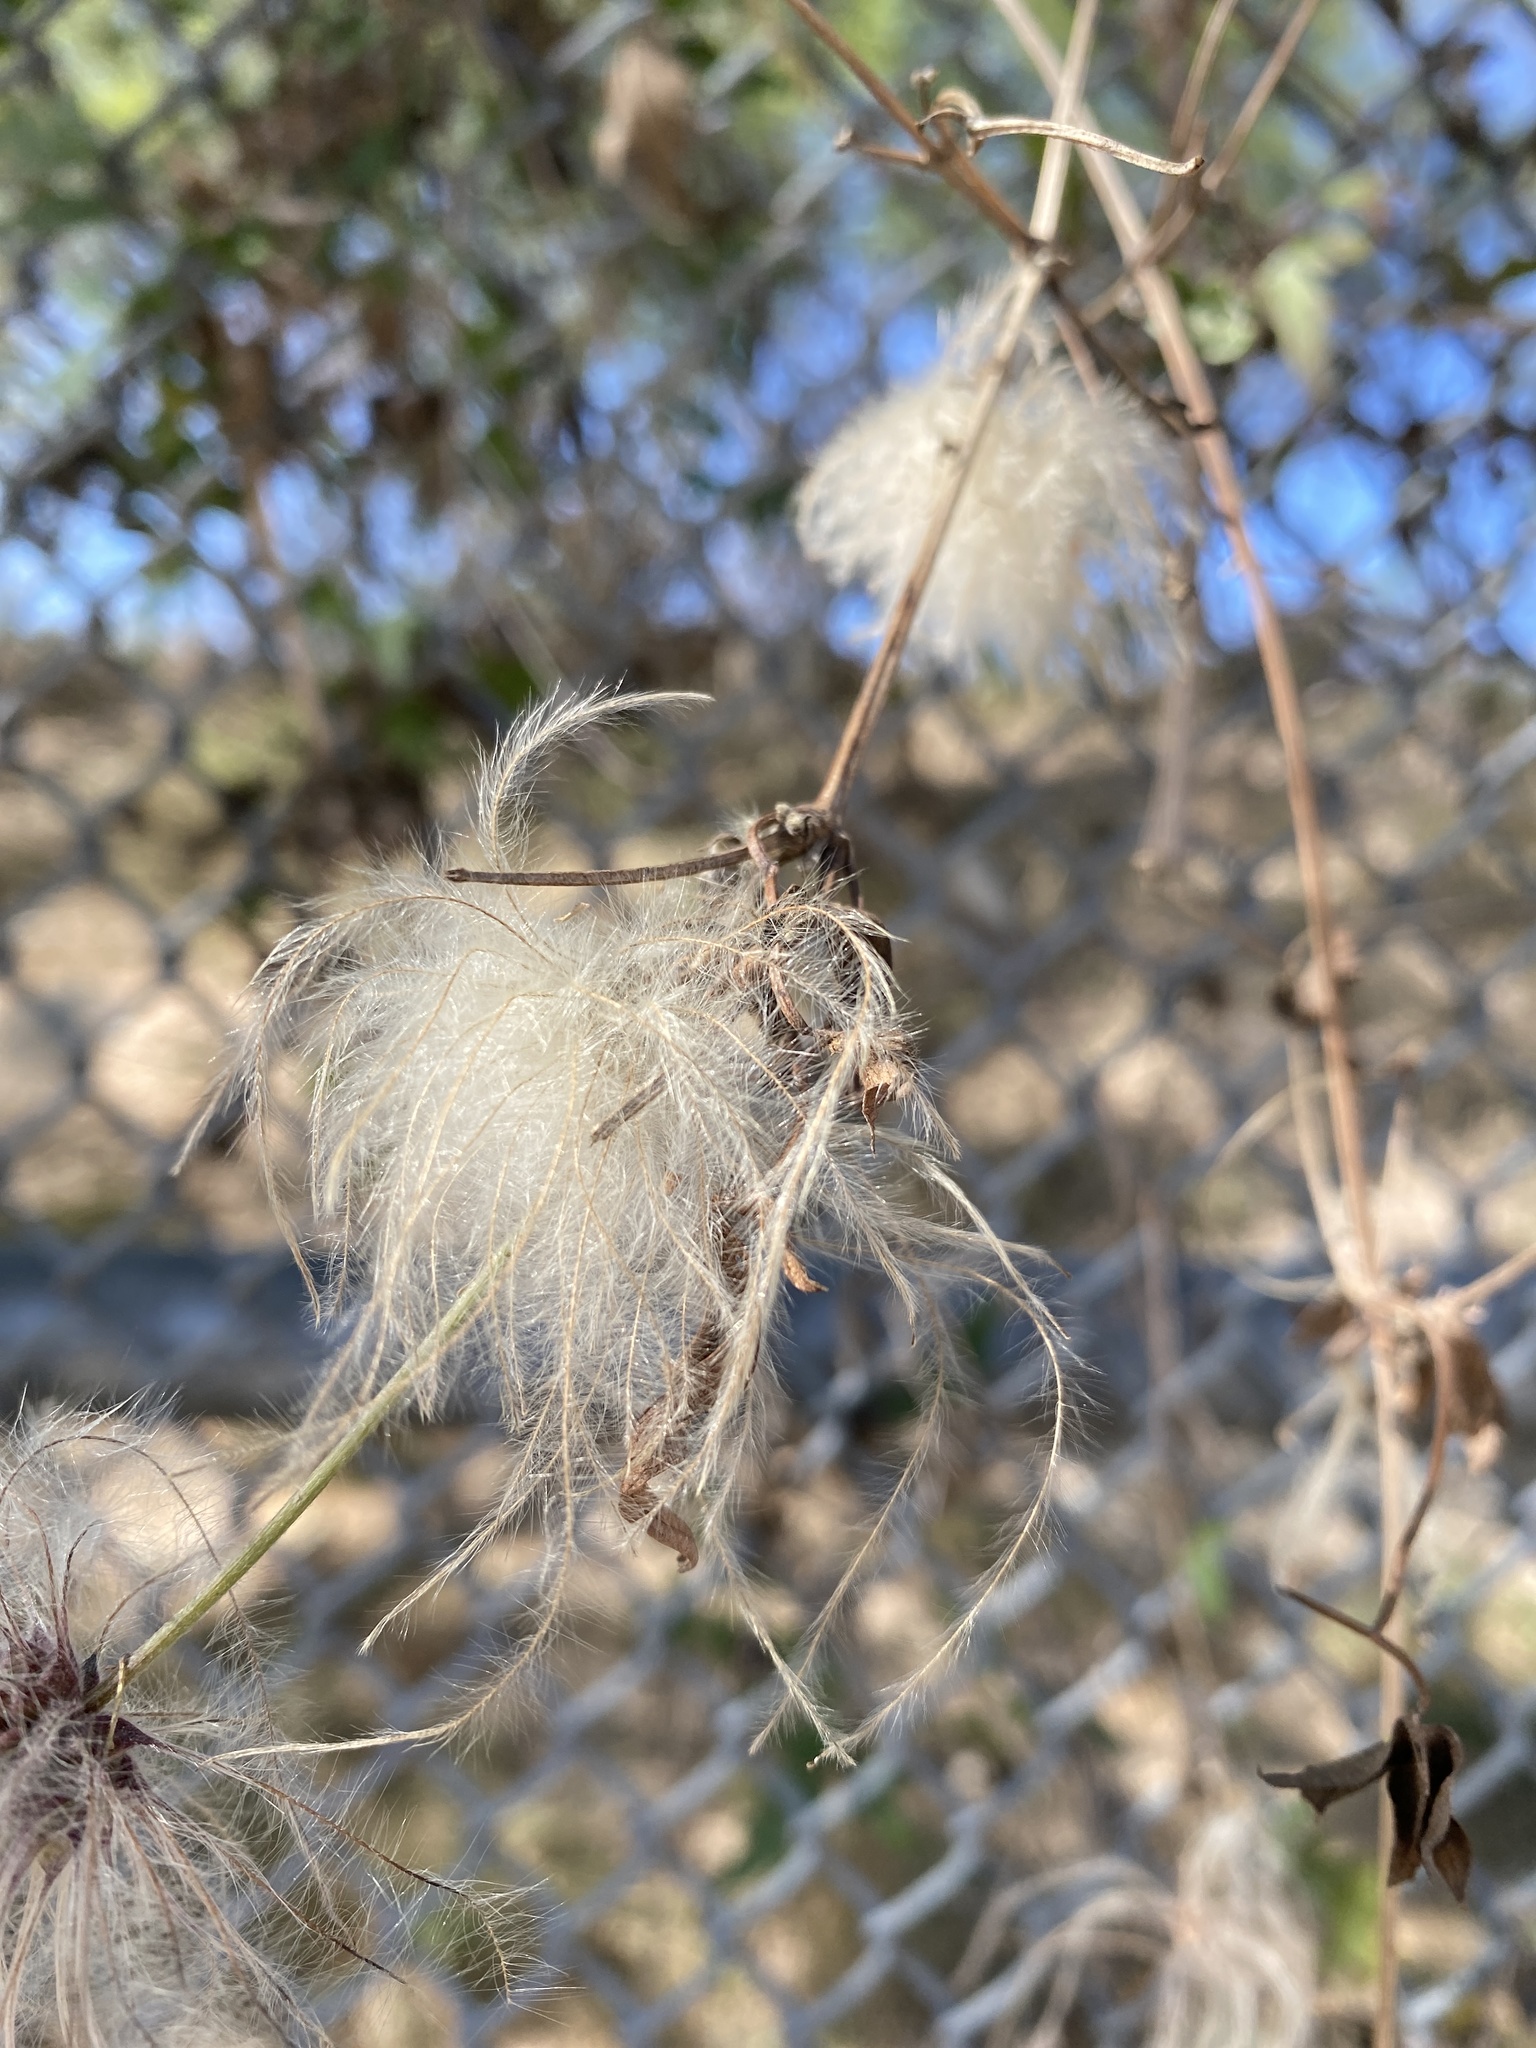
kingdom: Plantae
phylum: Tracheophyta
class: Magnoliopsida
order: Ranunculales
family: Ranunculaceae
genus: Clematis
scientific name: Clematis drummondii
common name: Texas virgin's bower
